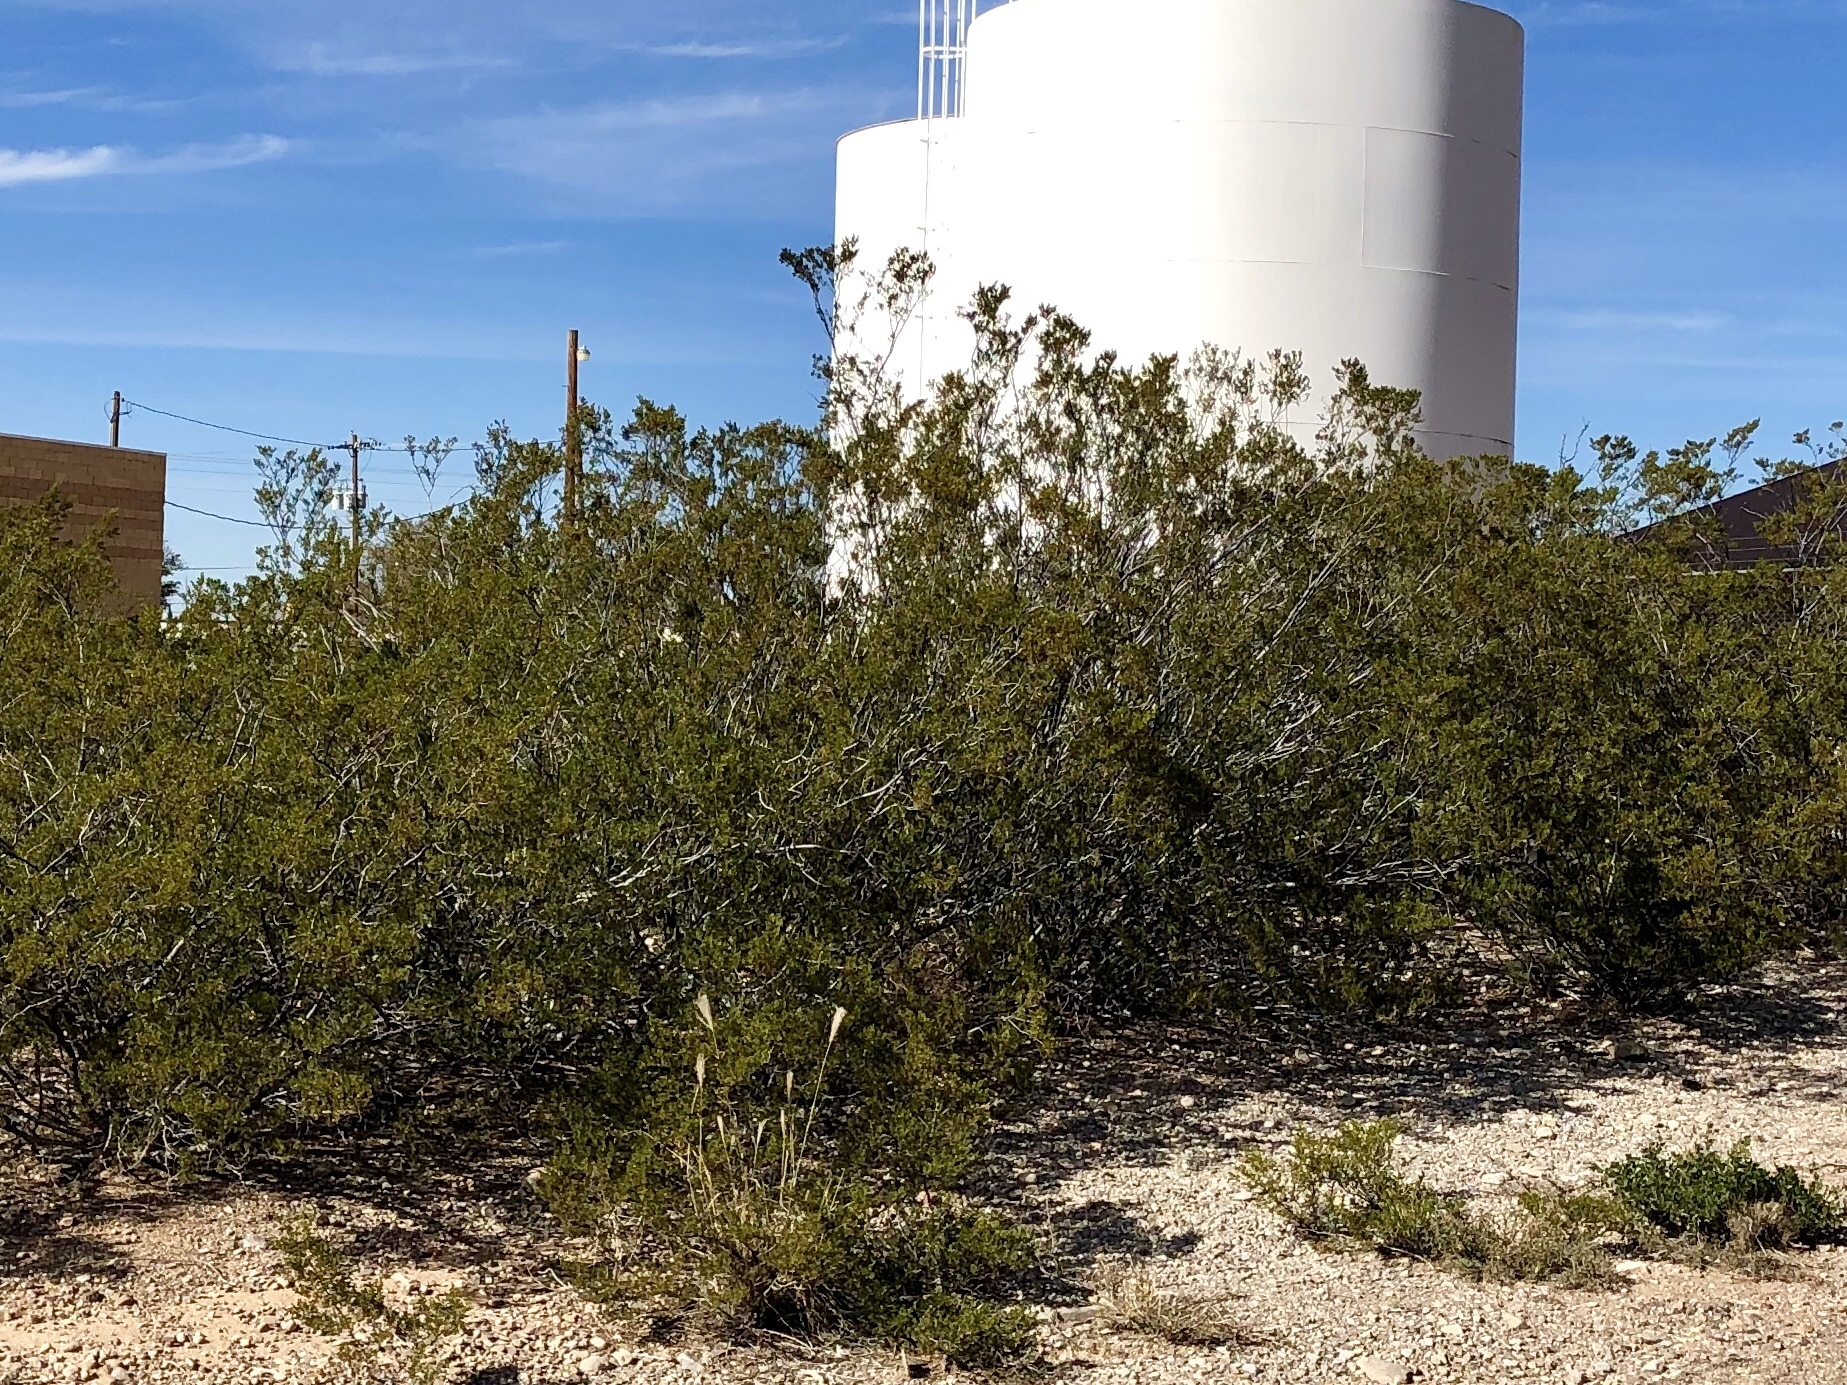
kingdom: Plantae
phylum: Tracheophyta
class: Magnoliopsida
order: Zygophyllales
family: Zygophyllaceae
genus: Larrea
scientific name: Larrea tridentata
